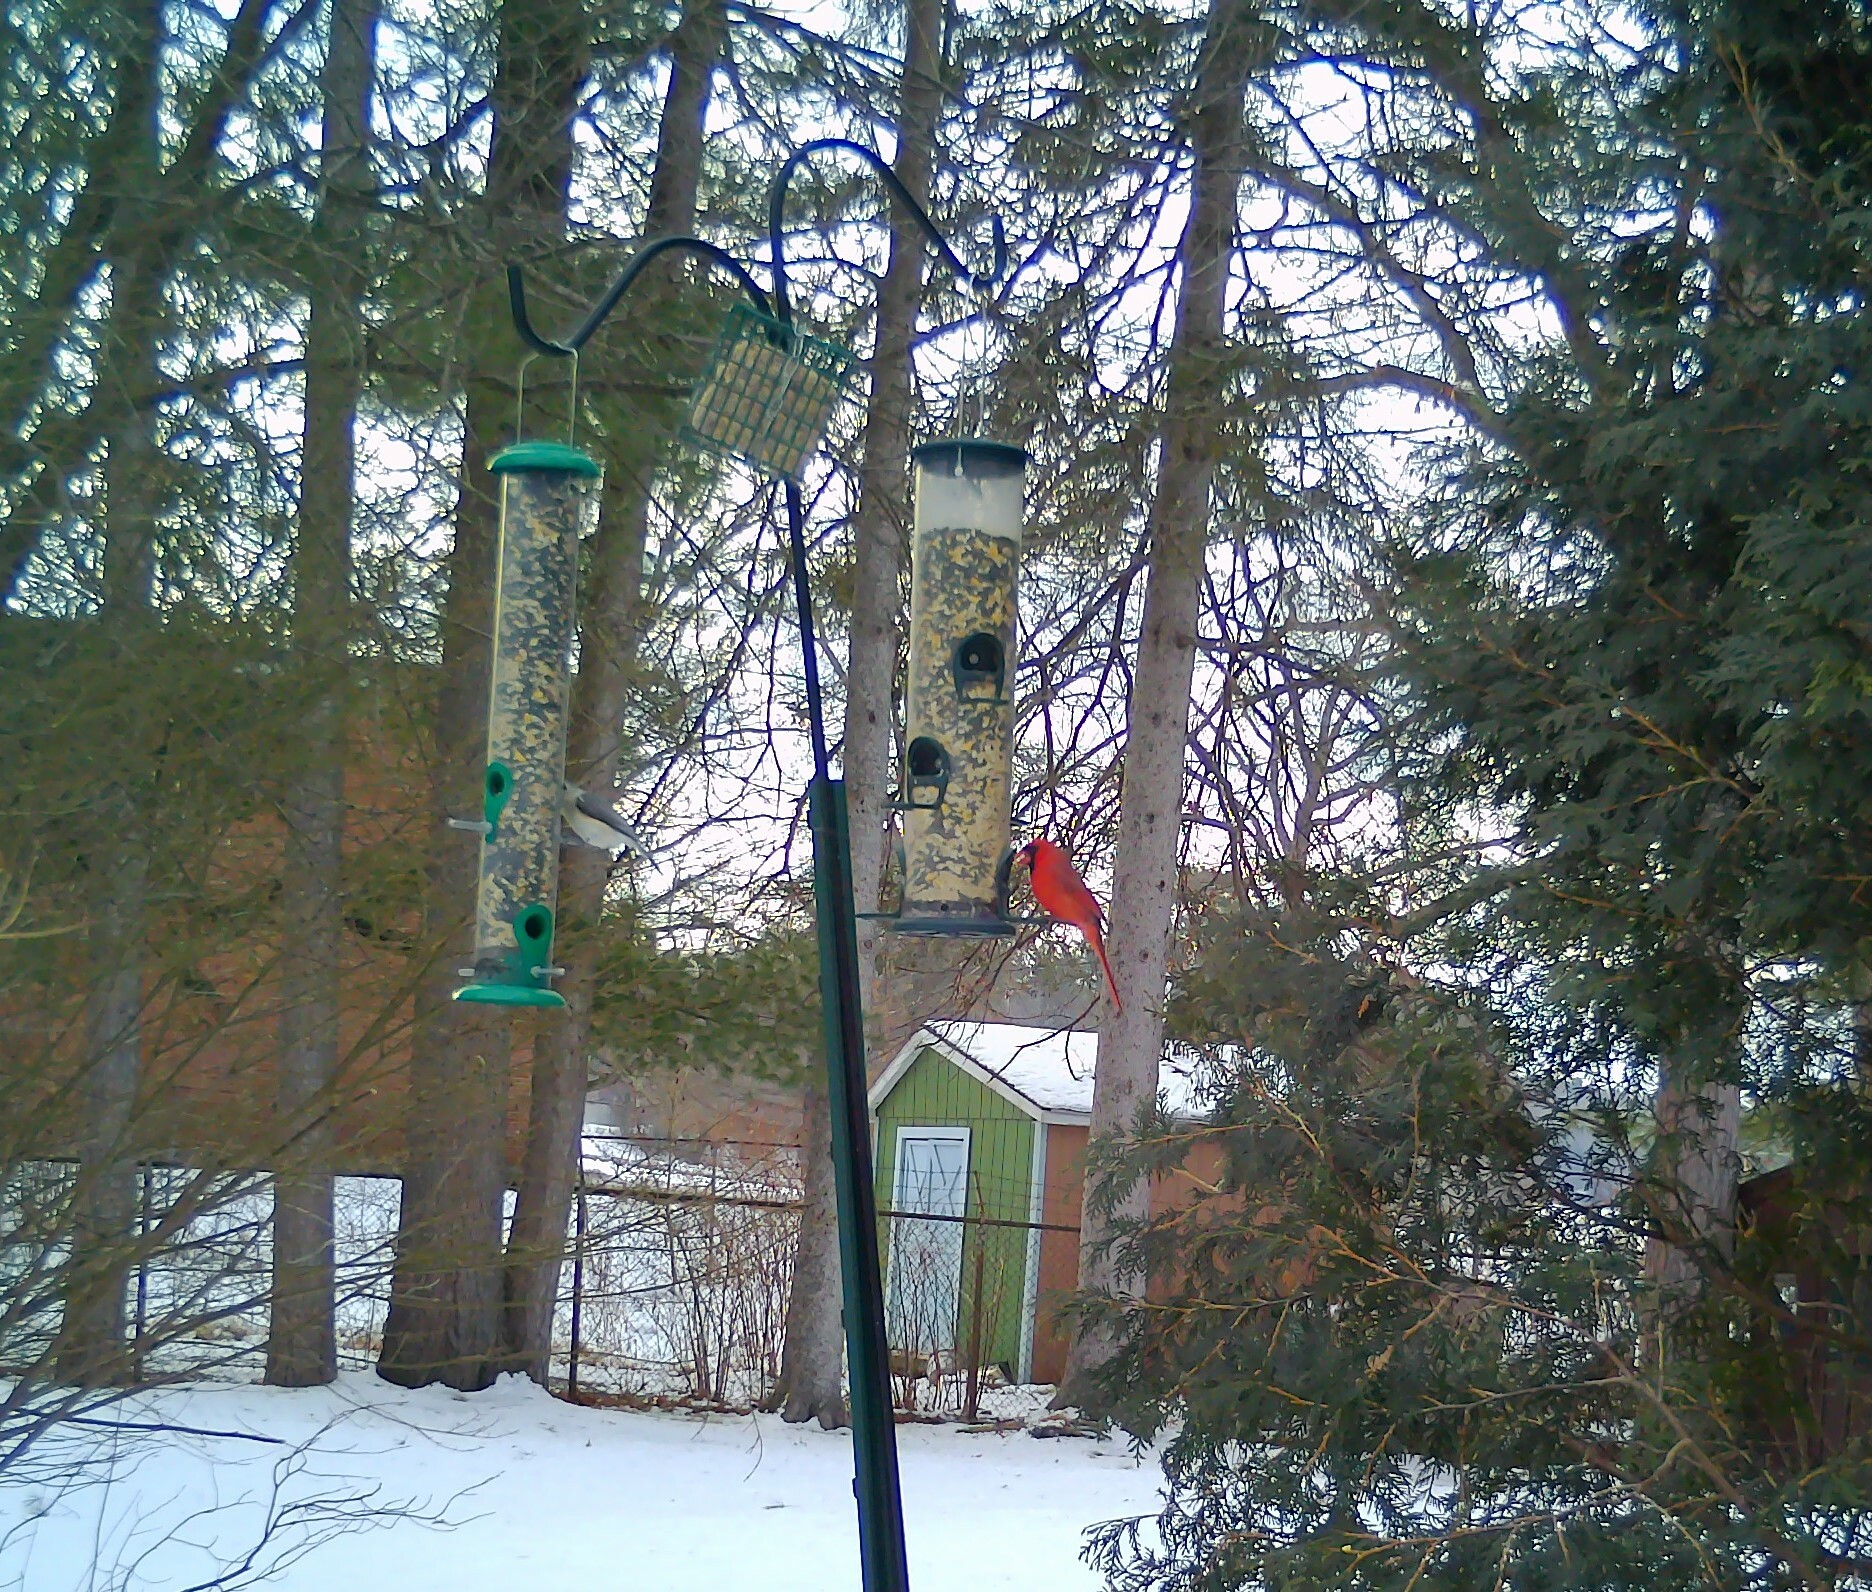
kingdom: Animalia
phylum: Chordata
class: Aves
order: Passeriformes
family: Cardinalidae
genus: Cardinalis
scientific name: Cardinalis cardinalis
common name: Northern cardinal
